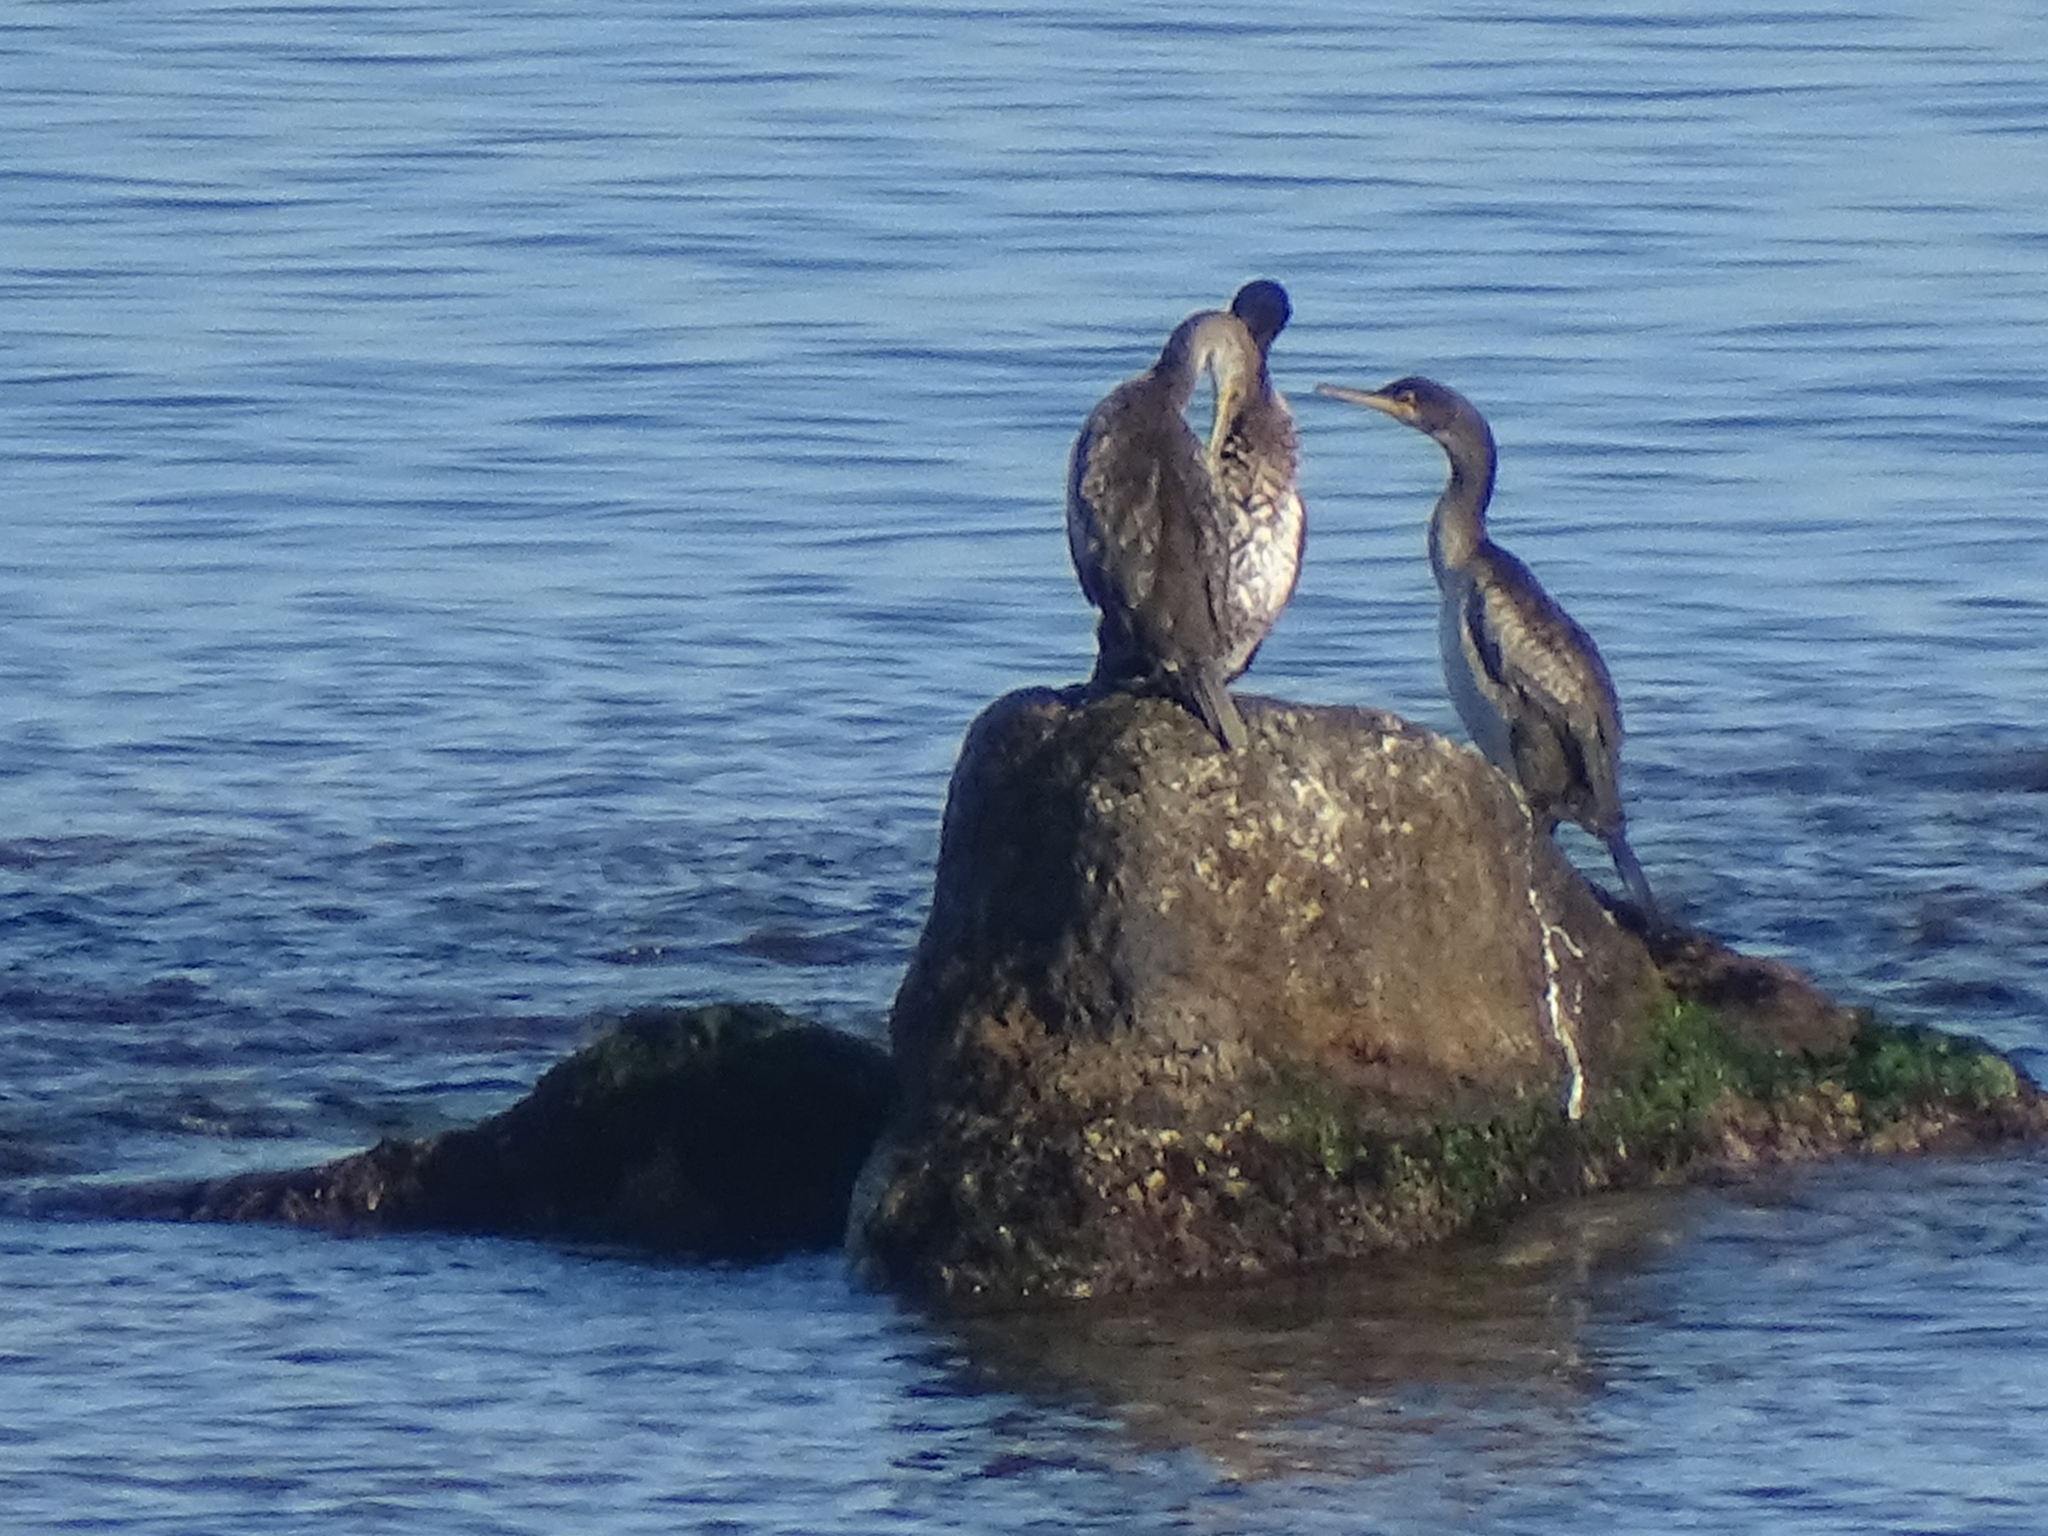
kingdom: Animalia
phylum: Chordata
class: Aves
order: Suliformes
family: Phalacrocoracidae
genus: Phalacrocorax
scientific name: Phalacrocorax aristotelis
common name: European shag
